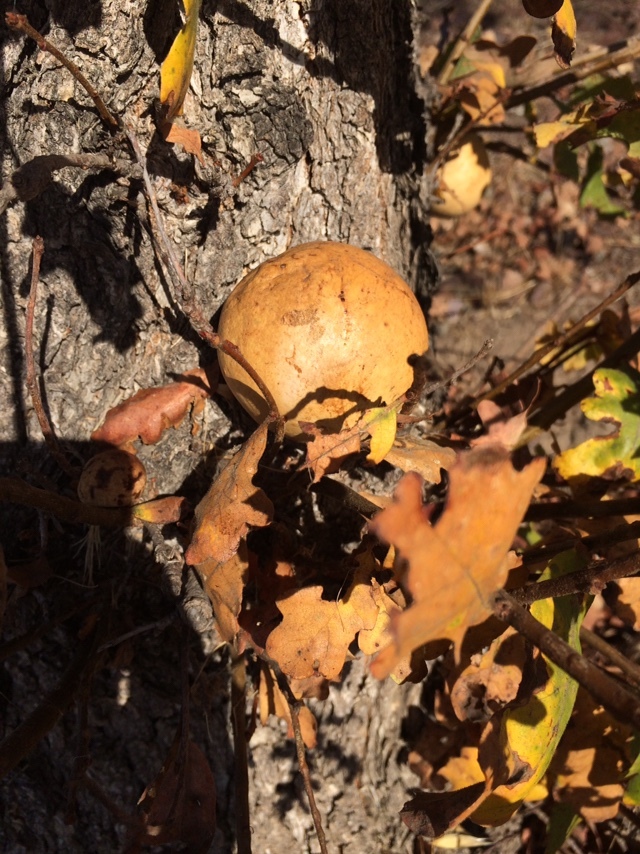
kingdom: Animalia
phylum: Arthropoda
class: Insecta
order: Hymenoptera
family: Cynipidae
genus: Andricus
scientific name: Andricus quercuscalifornicus
